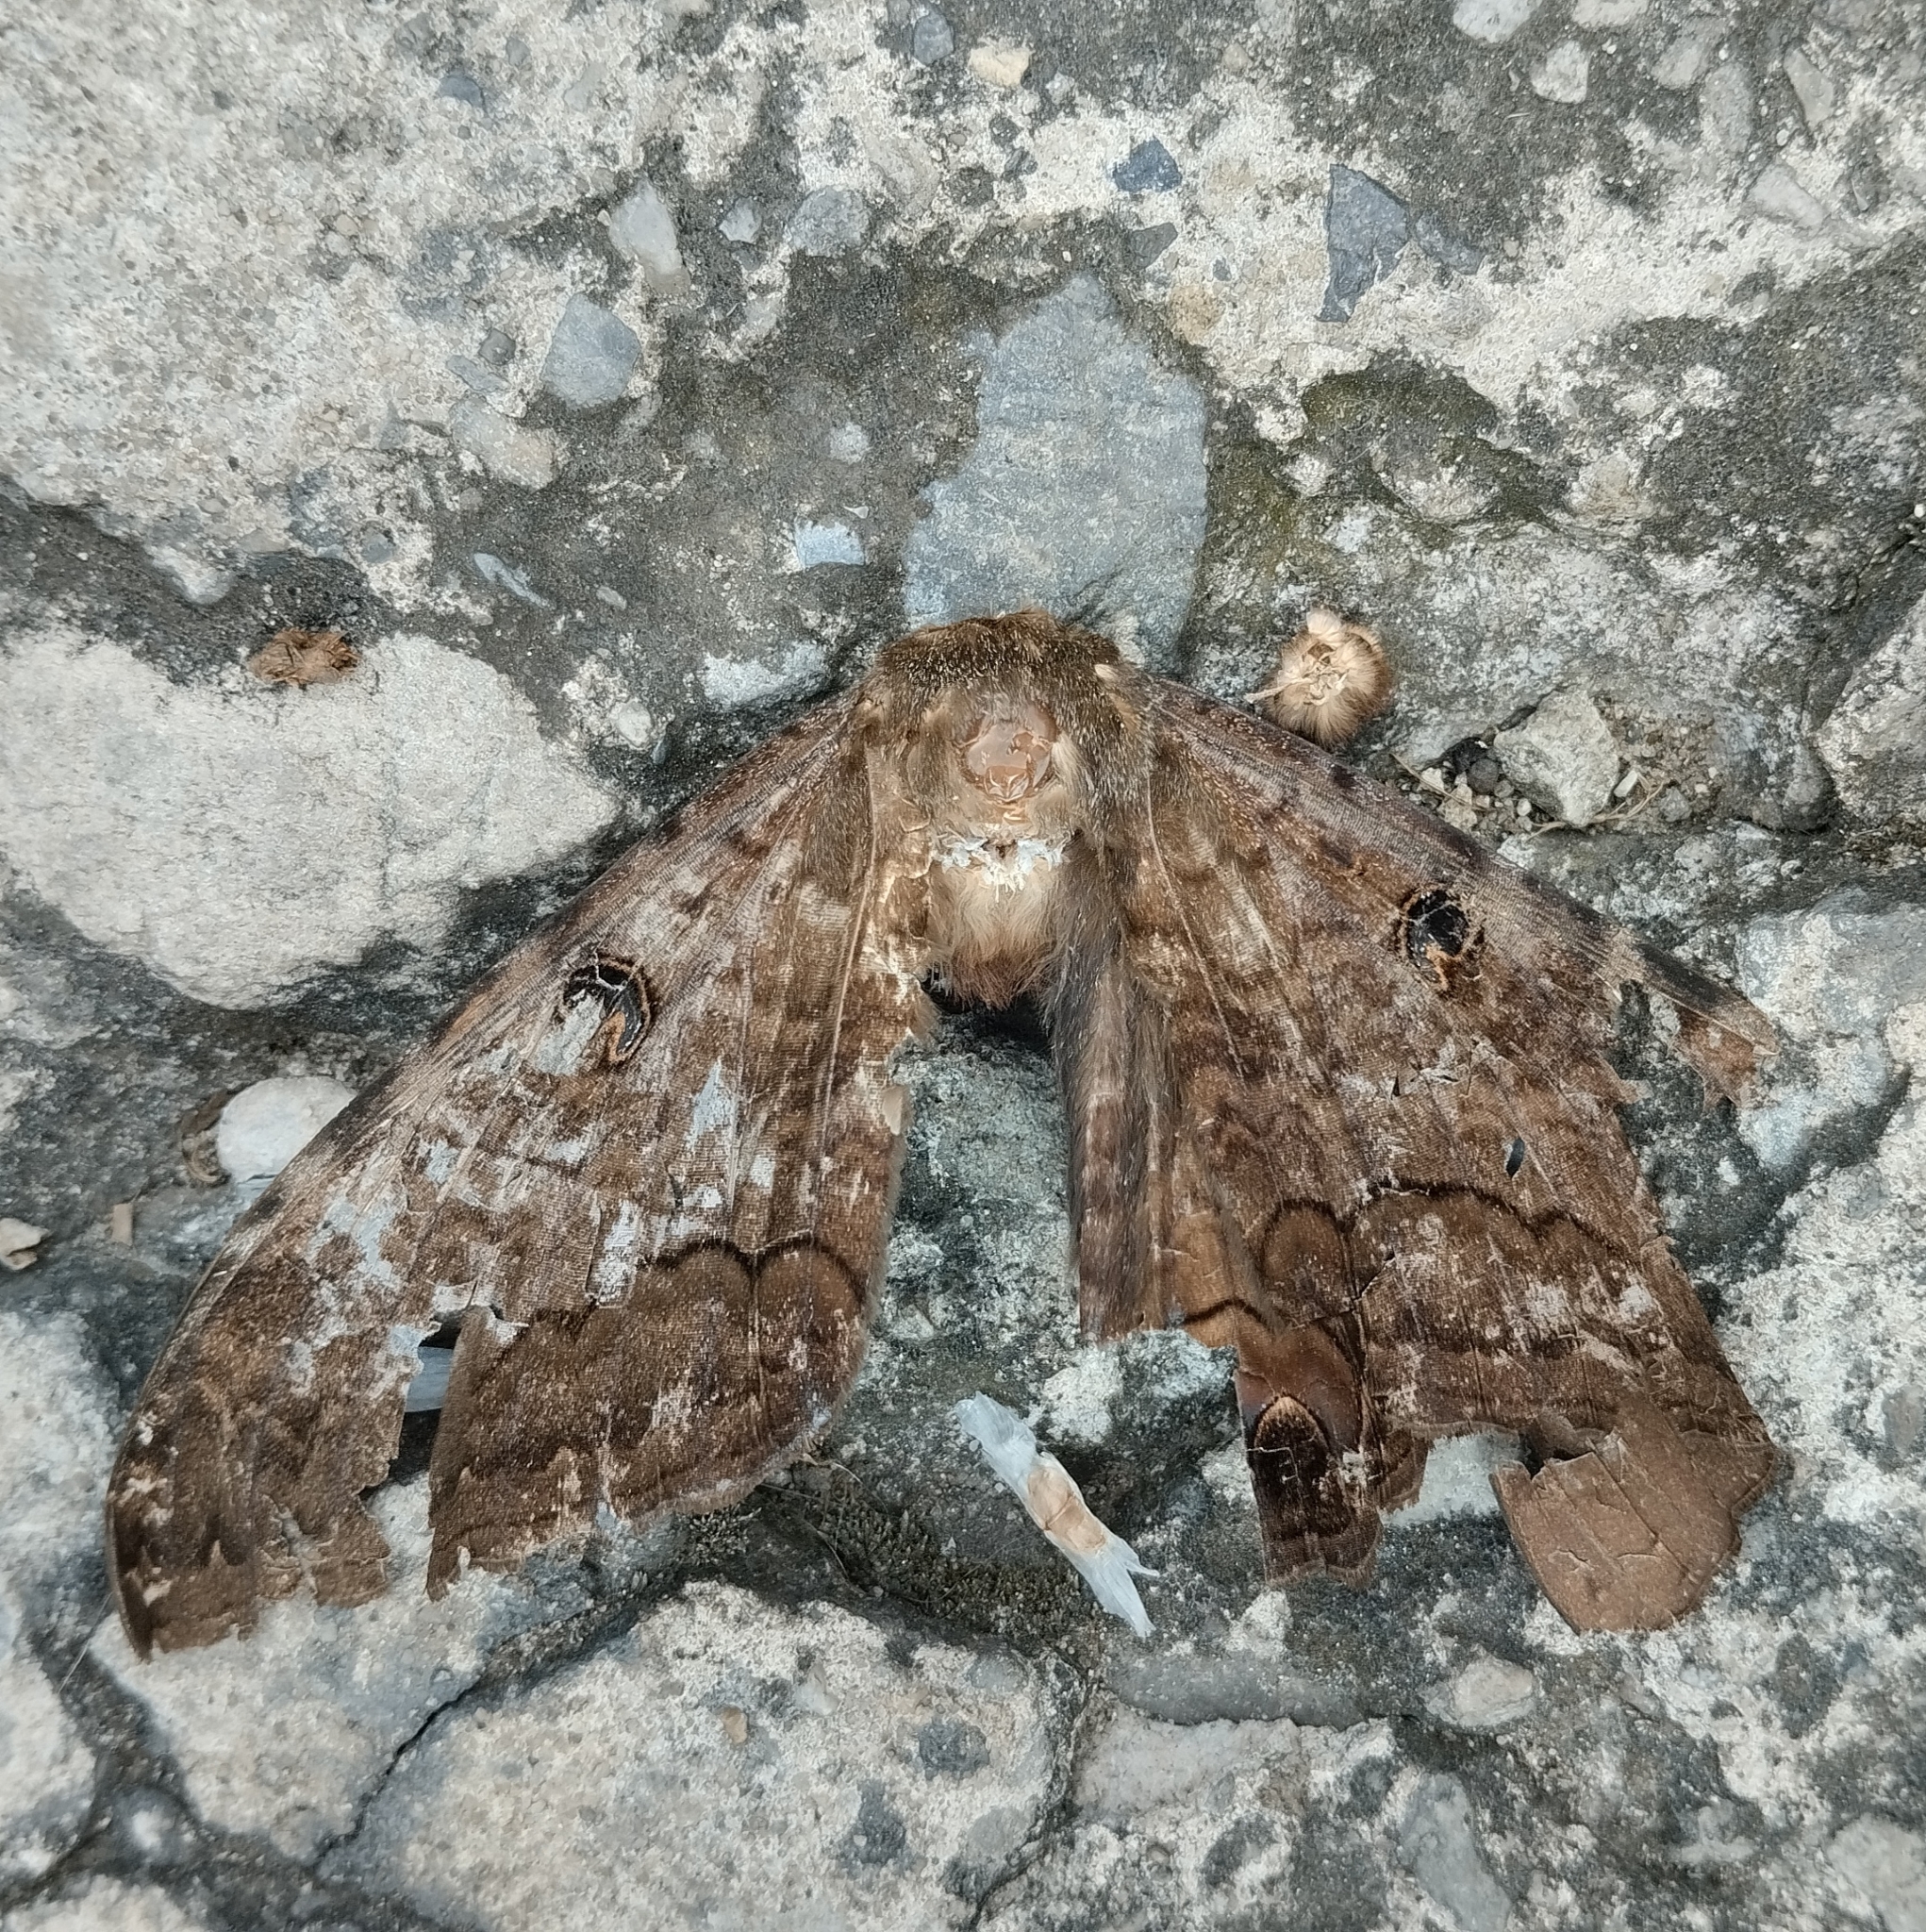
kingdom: Animalia
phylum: Arthropoda
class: Insecta
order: Lepidoptera
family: Erebidae
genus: Ascalapha
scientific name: Ascalapha odorata
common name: Black witch
